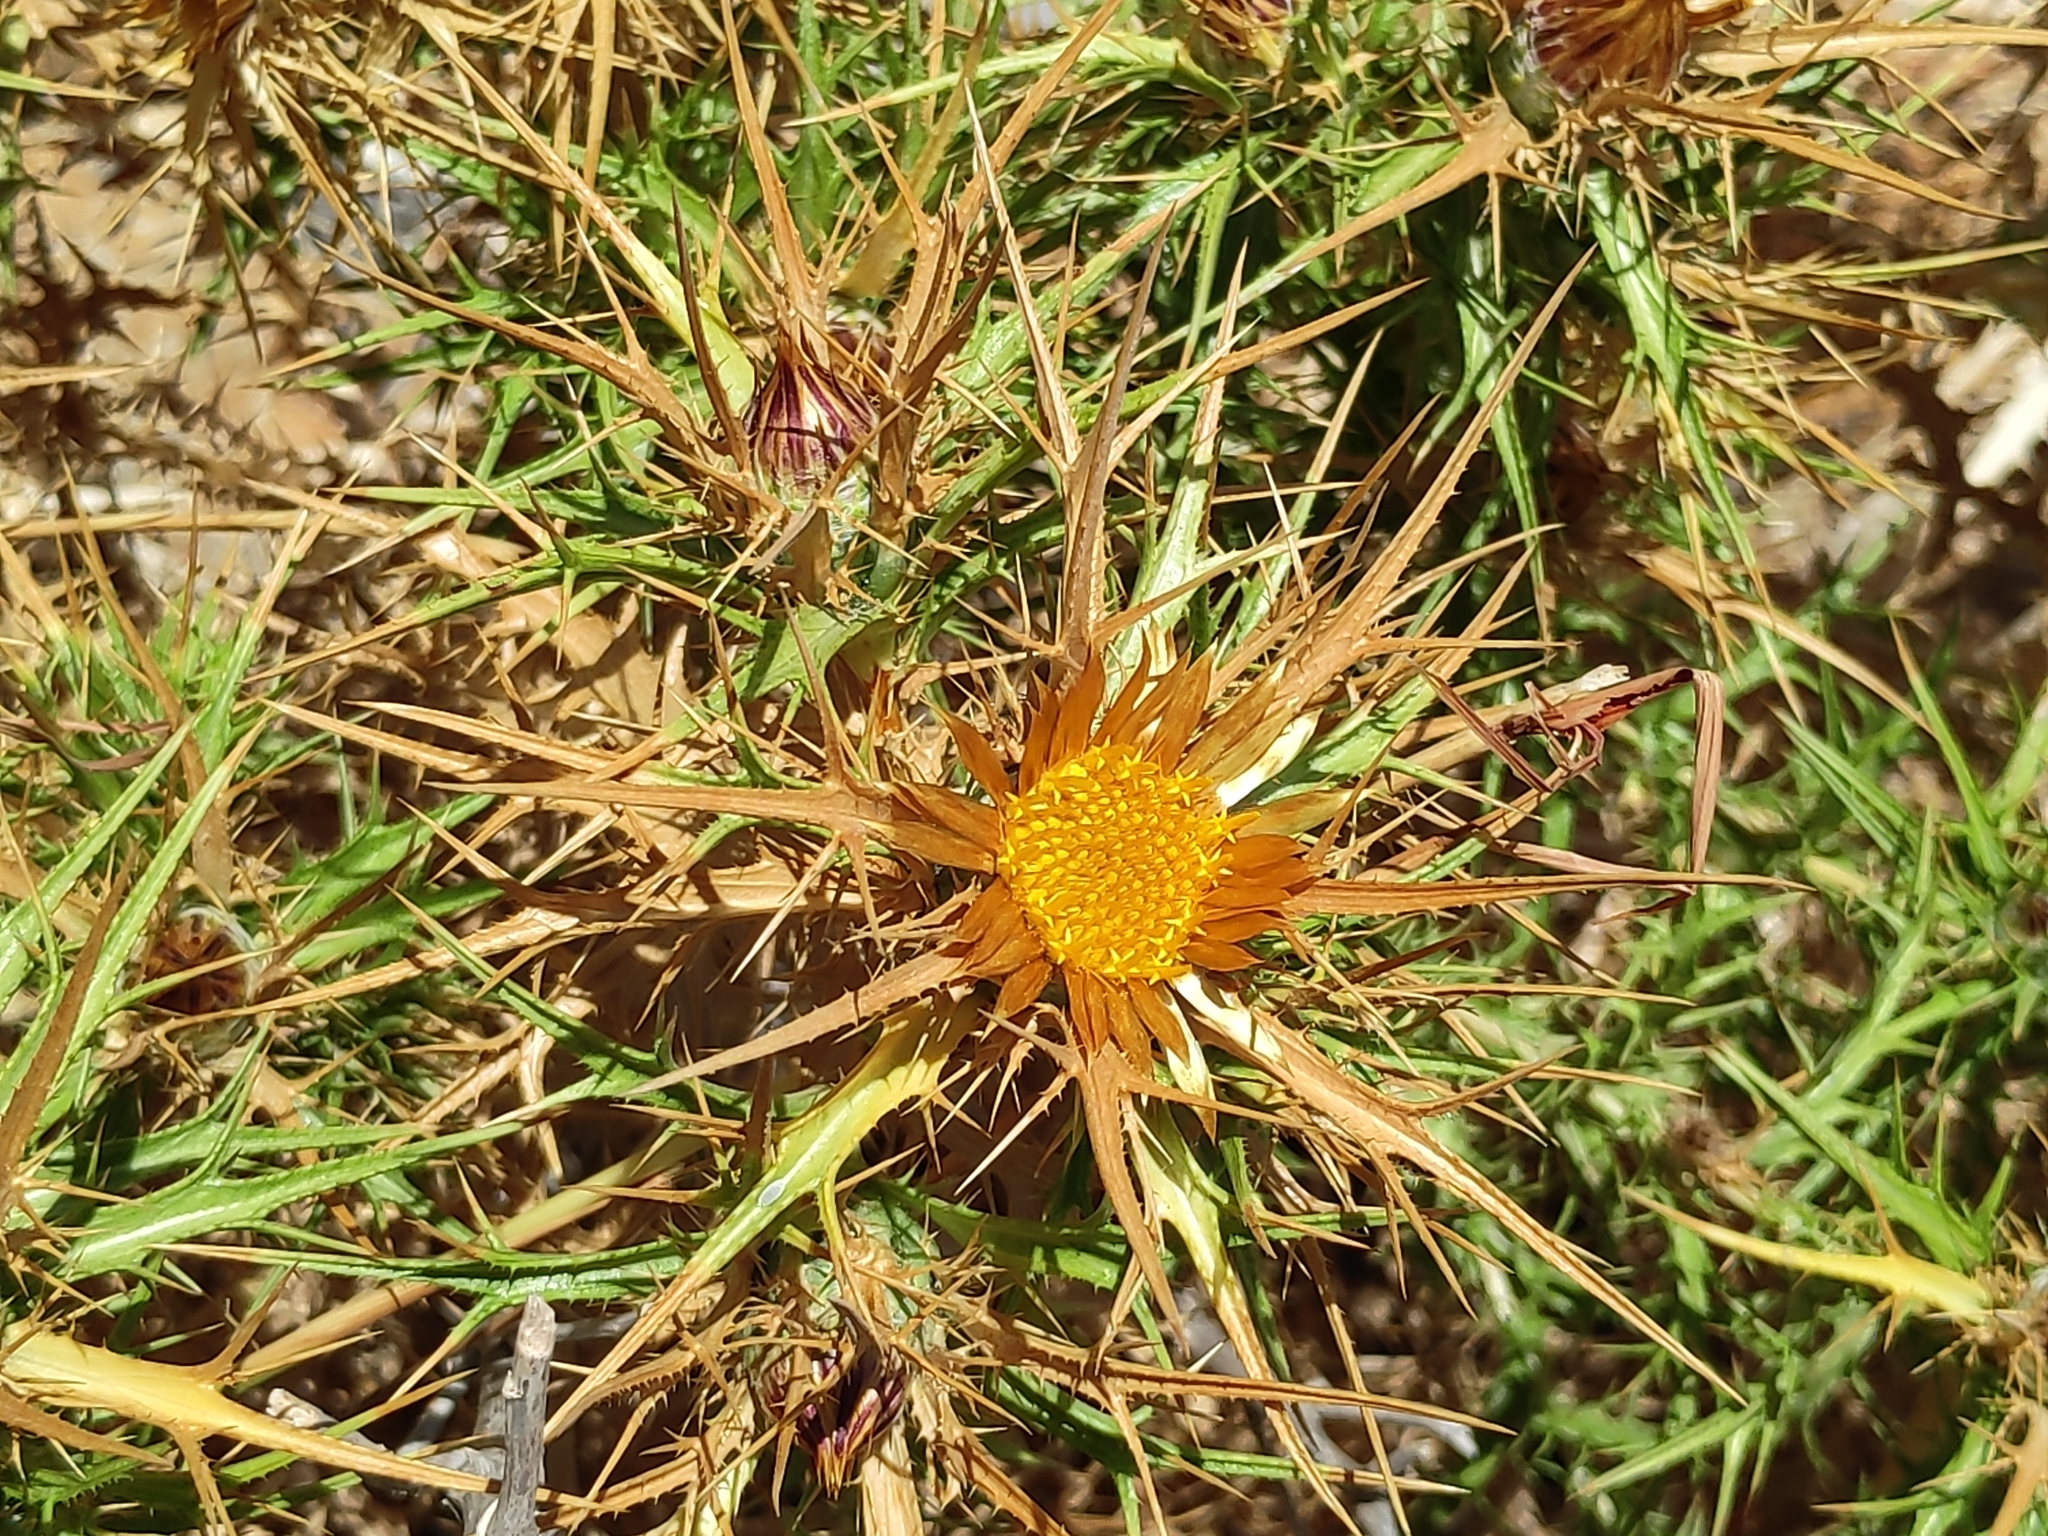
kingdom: Plantae
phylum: Tracheophyta
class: Magnoliopsida
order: Asterales
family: Asteraceae
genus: Carlina
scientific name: Carlina corymbosa
